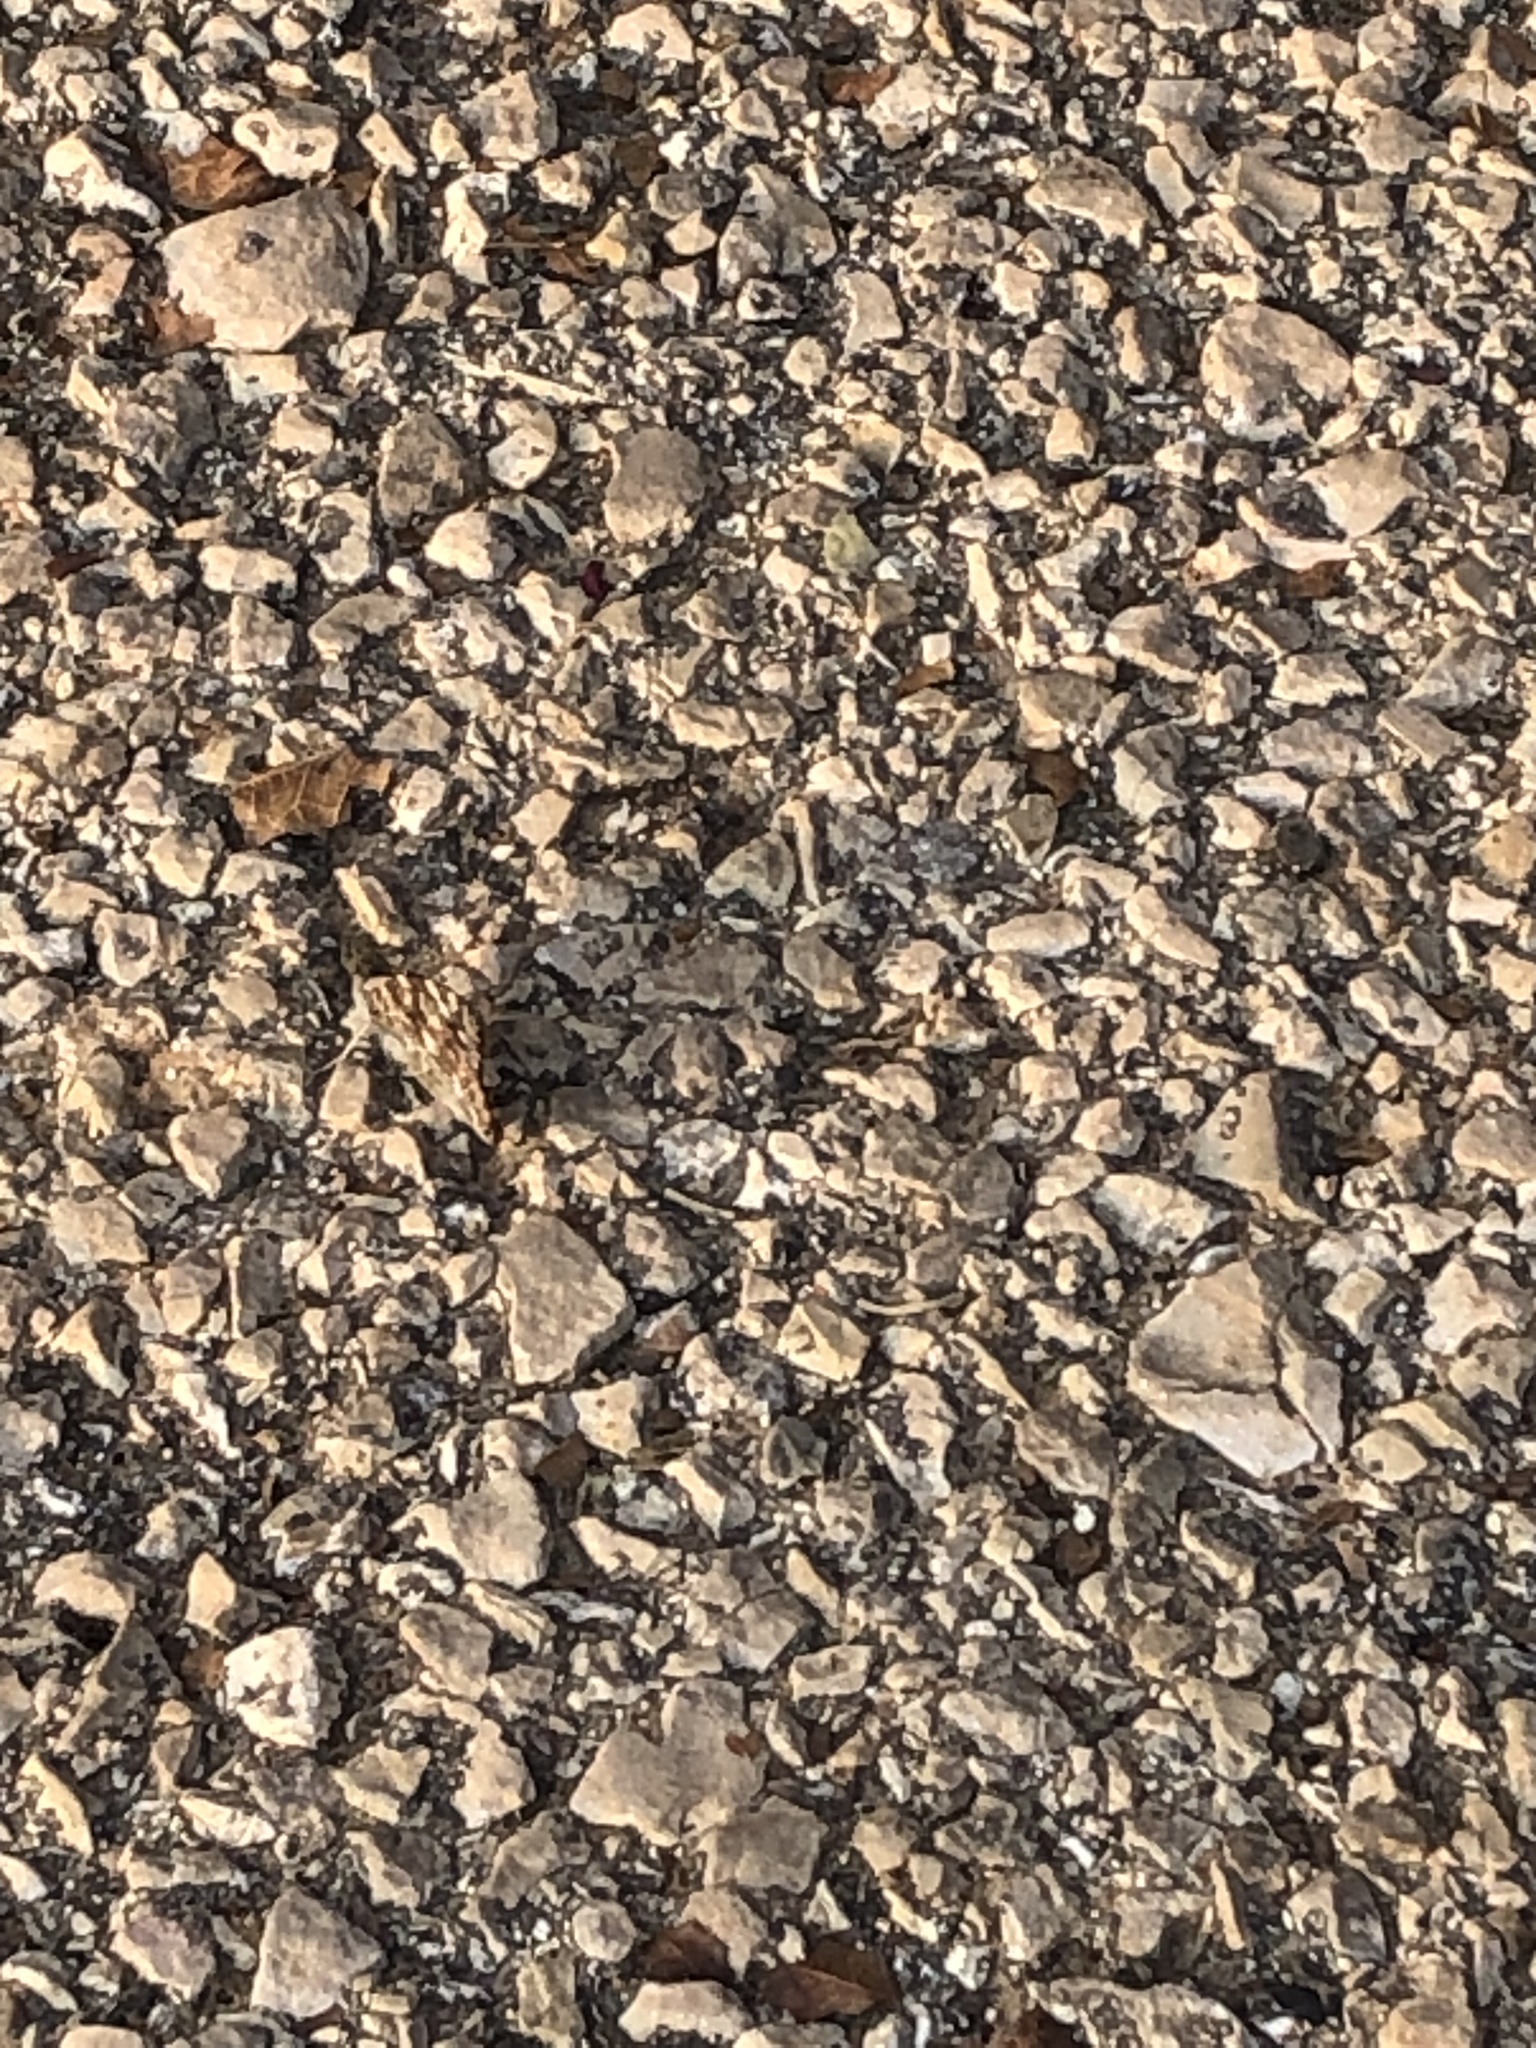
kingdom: Animalia
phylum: Arthropoda
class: Insecta
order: Lepidoptera
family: Nymphalidae
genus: Vanessa
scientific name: Vanessa cardui
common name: Painted lady
